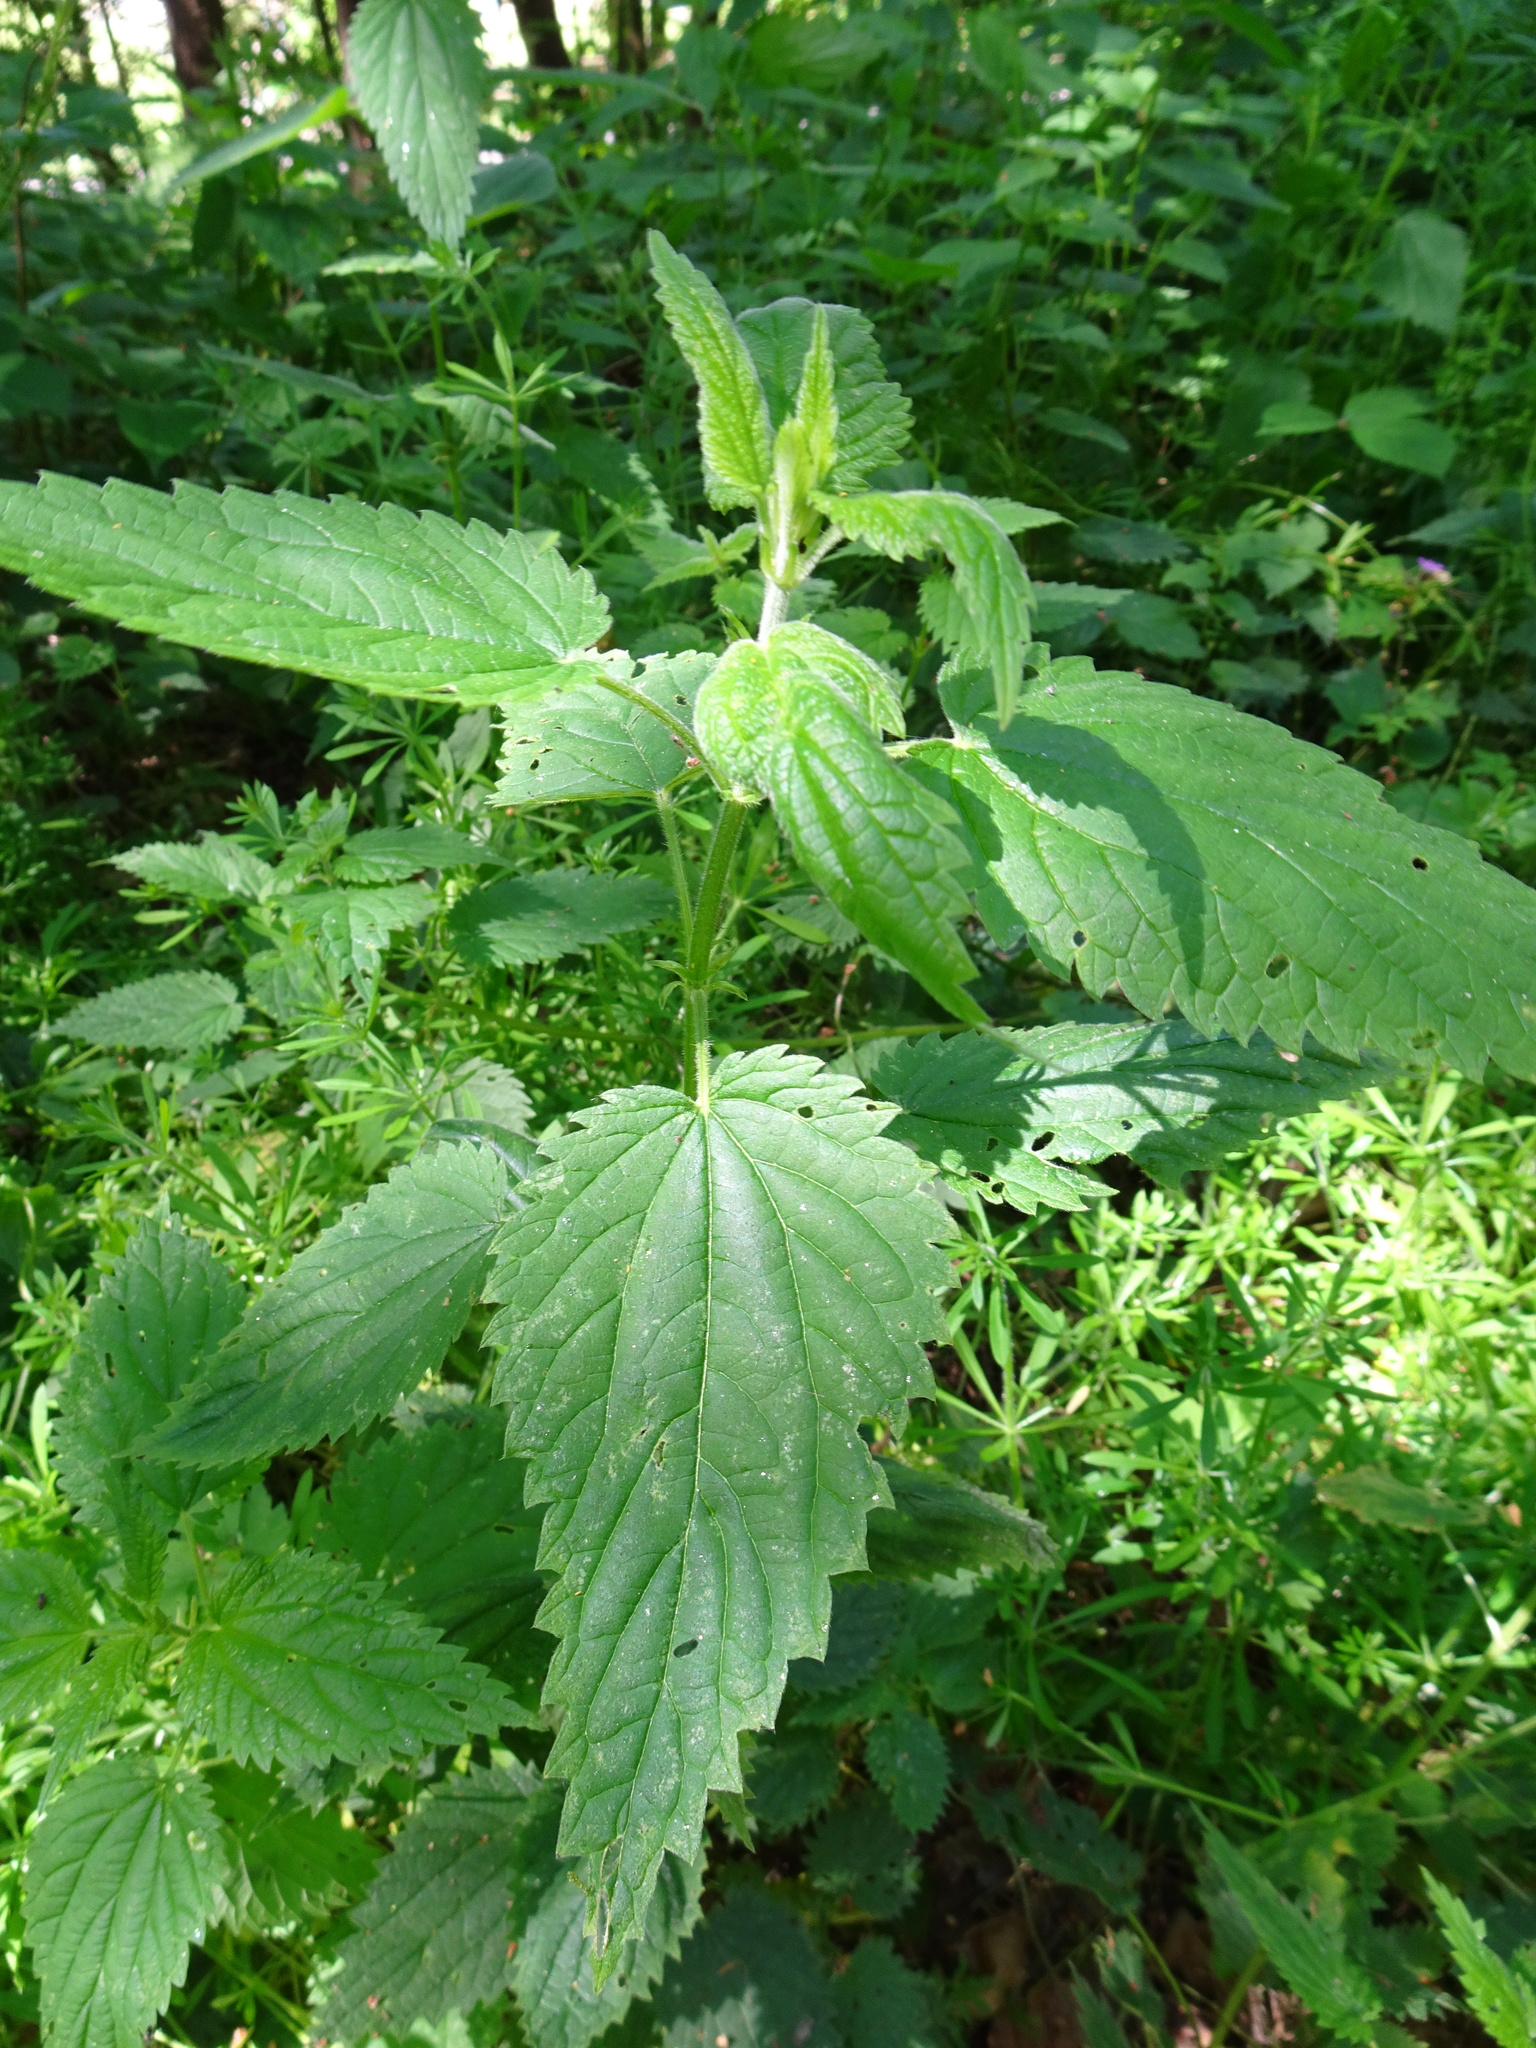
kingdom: Plantae
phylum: Tracheophyta
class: Magnoliopsida
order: Rosales
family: Urticaceae
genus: Urtica
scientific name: Urtica dioica
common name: Common nettle
